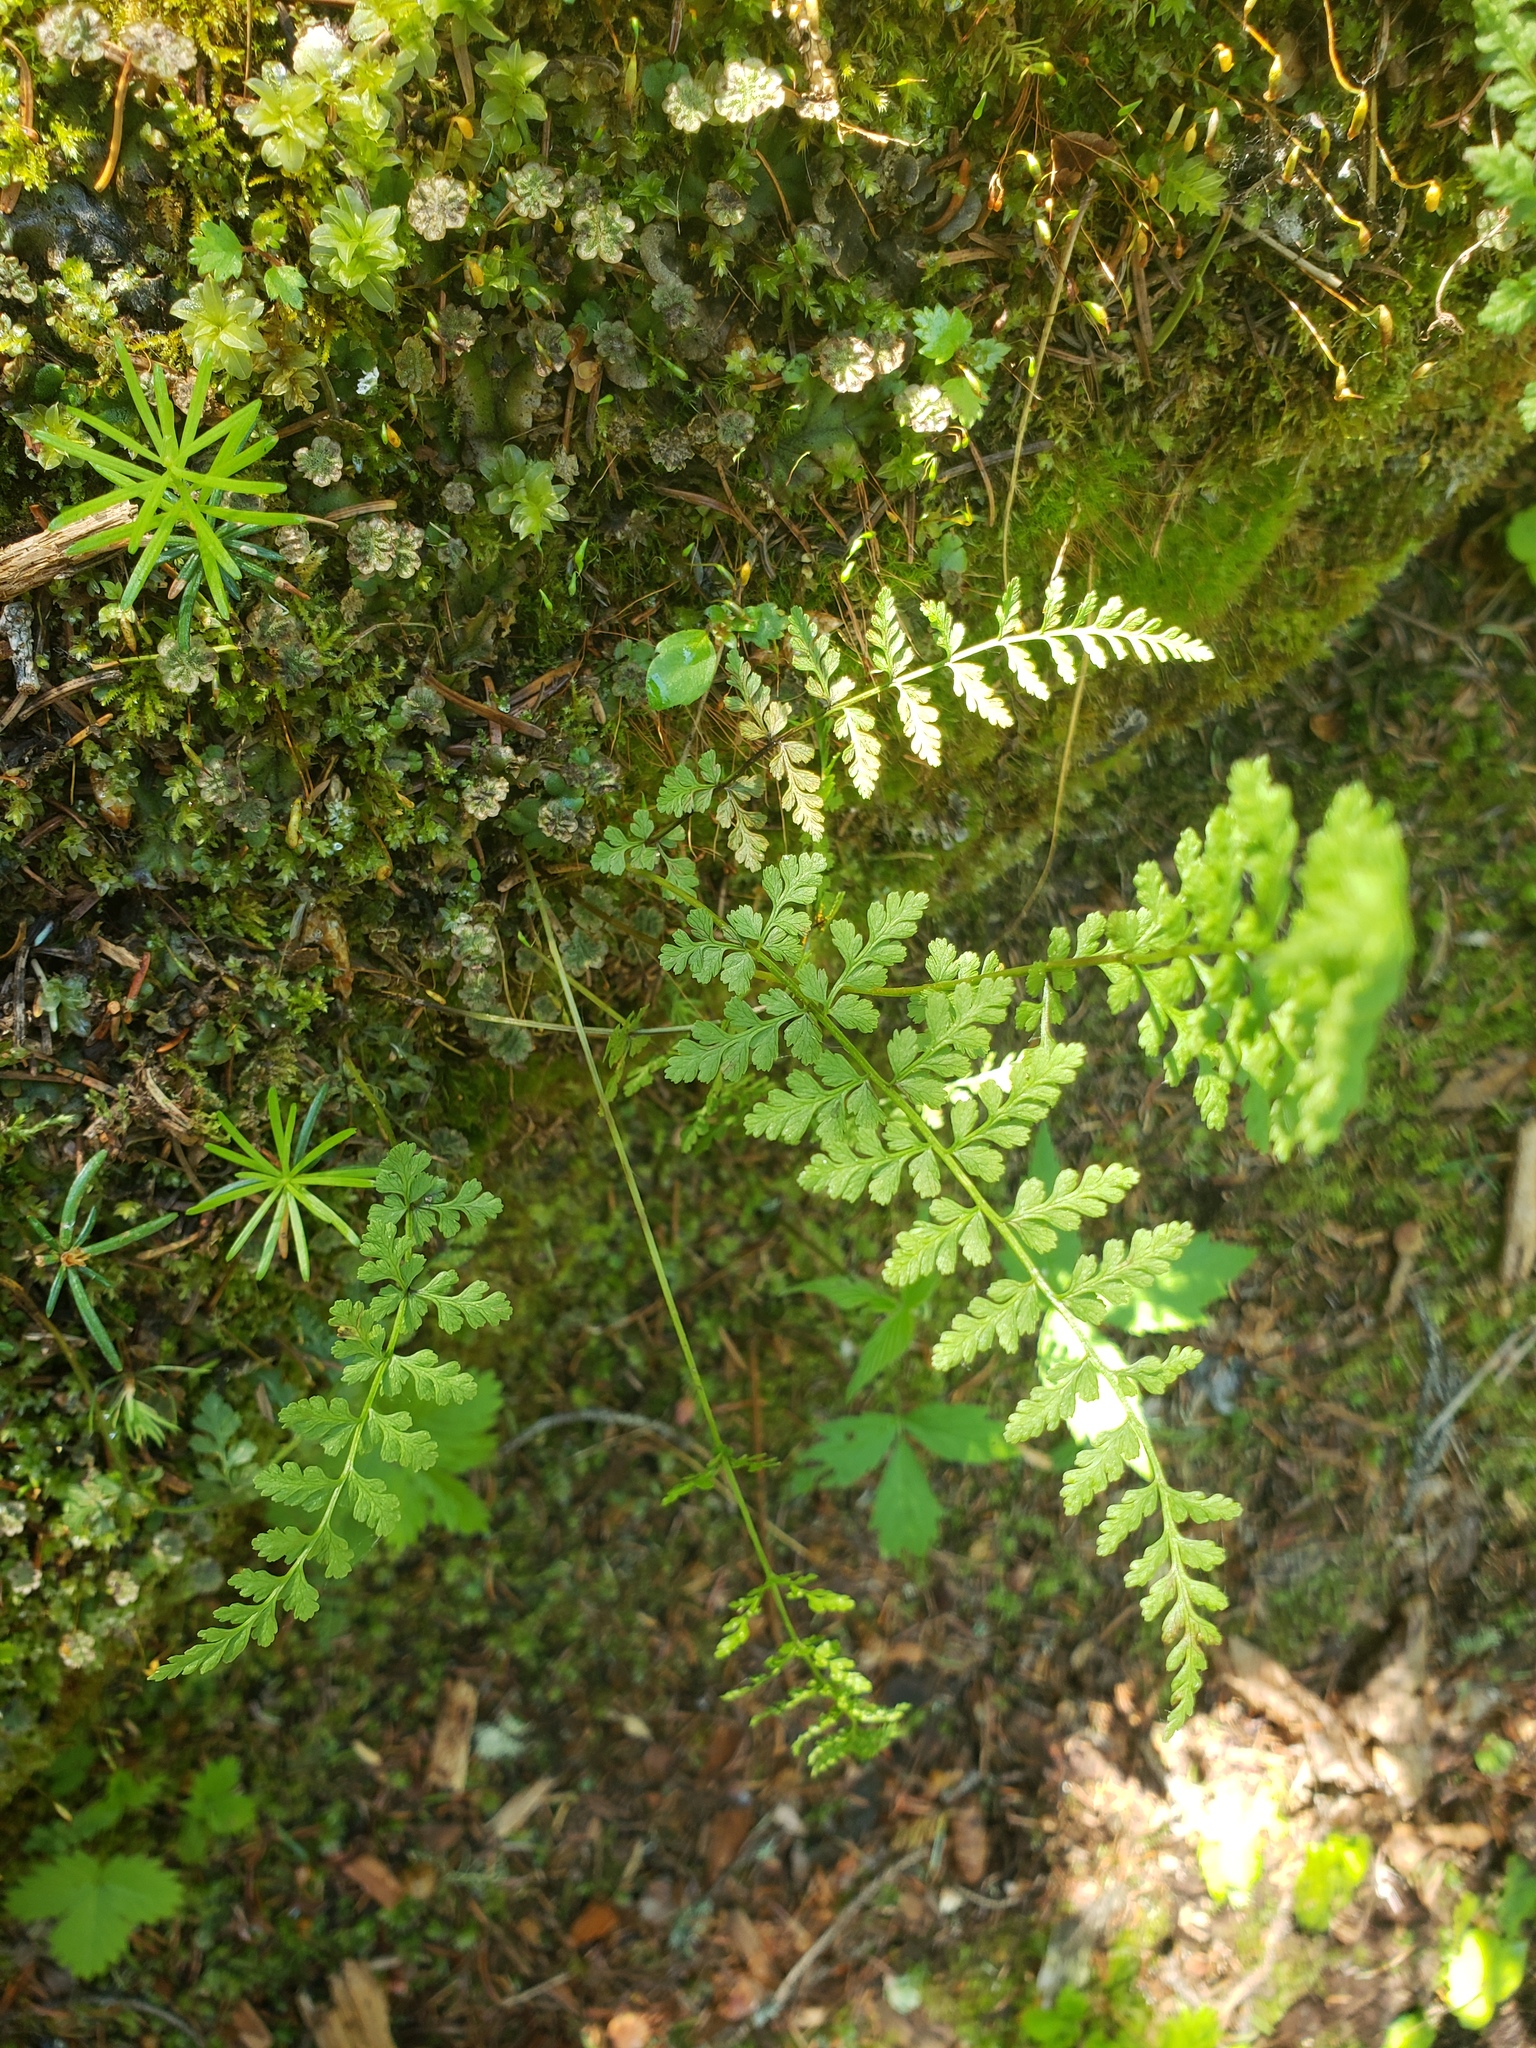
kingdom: Plantae
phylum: Tracheophyta
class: Polypodiopsida
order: Polypodiales
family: Cystopteridaceae
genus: Cystopteris
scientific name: Cystopteris fragilis
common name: Brittle bladder fern
